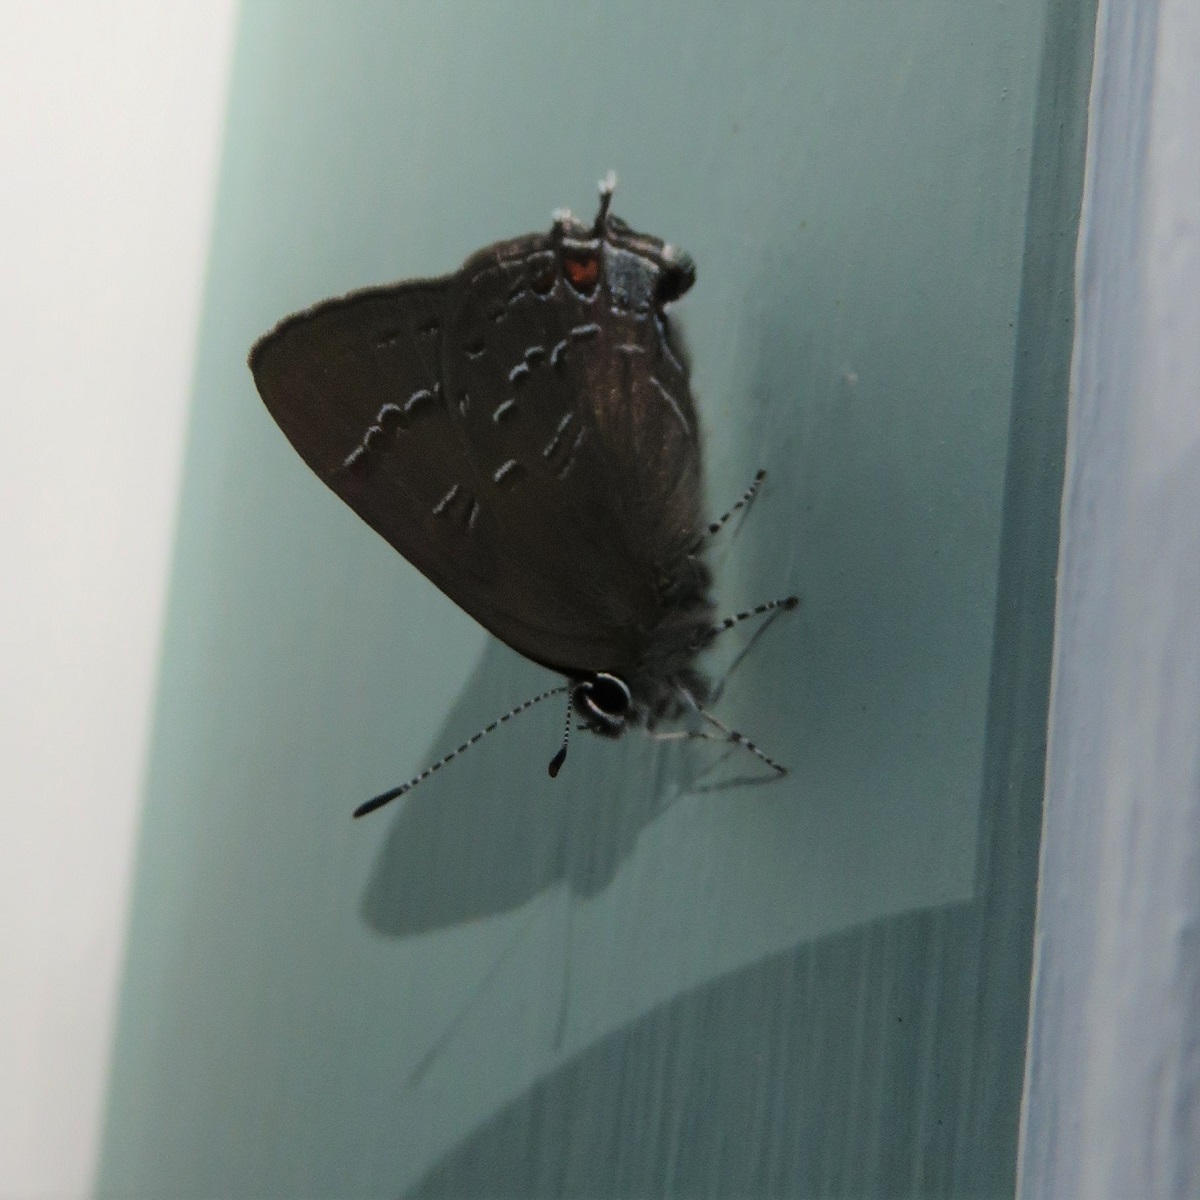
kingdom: Animalia
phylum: Arthropoda
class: Insecta
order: Lepidoptera
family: Lycaenidae
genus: Satyrium
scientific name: Satyrium calanus
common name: Banded hairstreak
